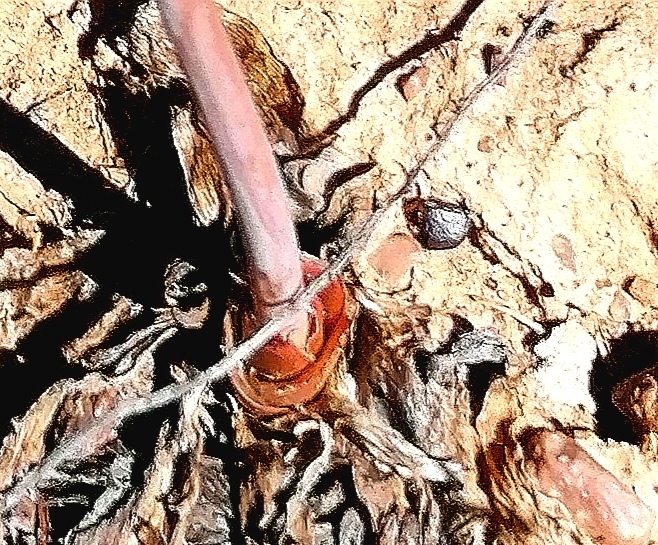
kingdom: Plantae
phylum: Tracheophyta
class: Liliopsida
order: Asparagales
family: Asphodelaceae
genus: Bulbine
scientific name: Bulbine alooides
